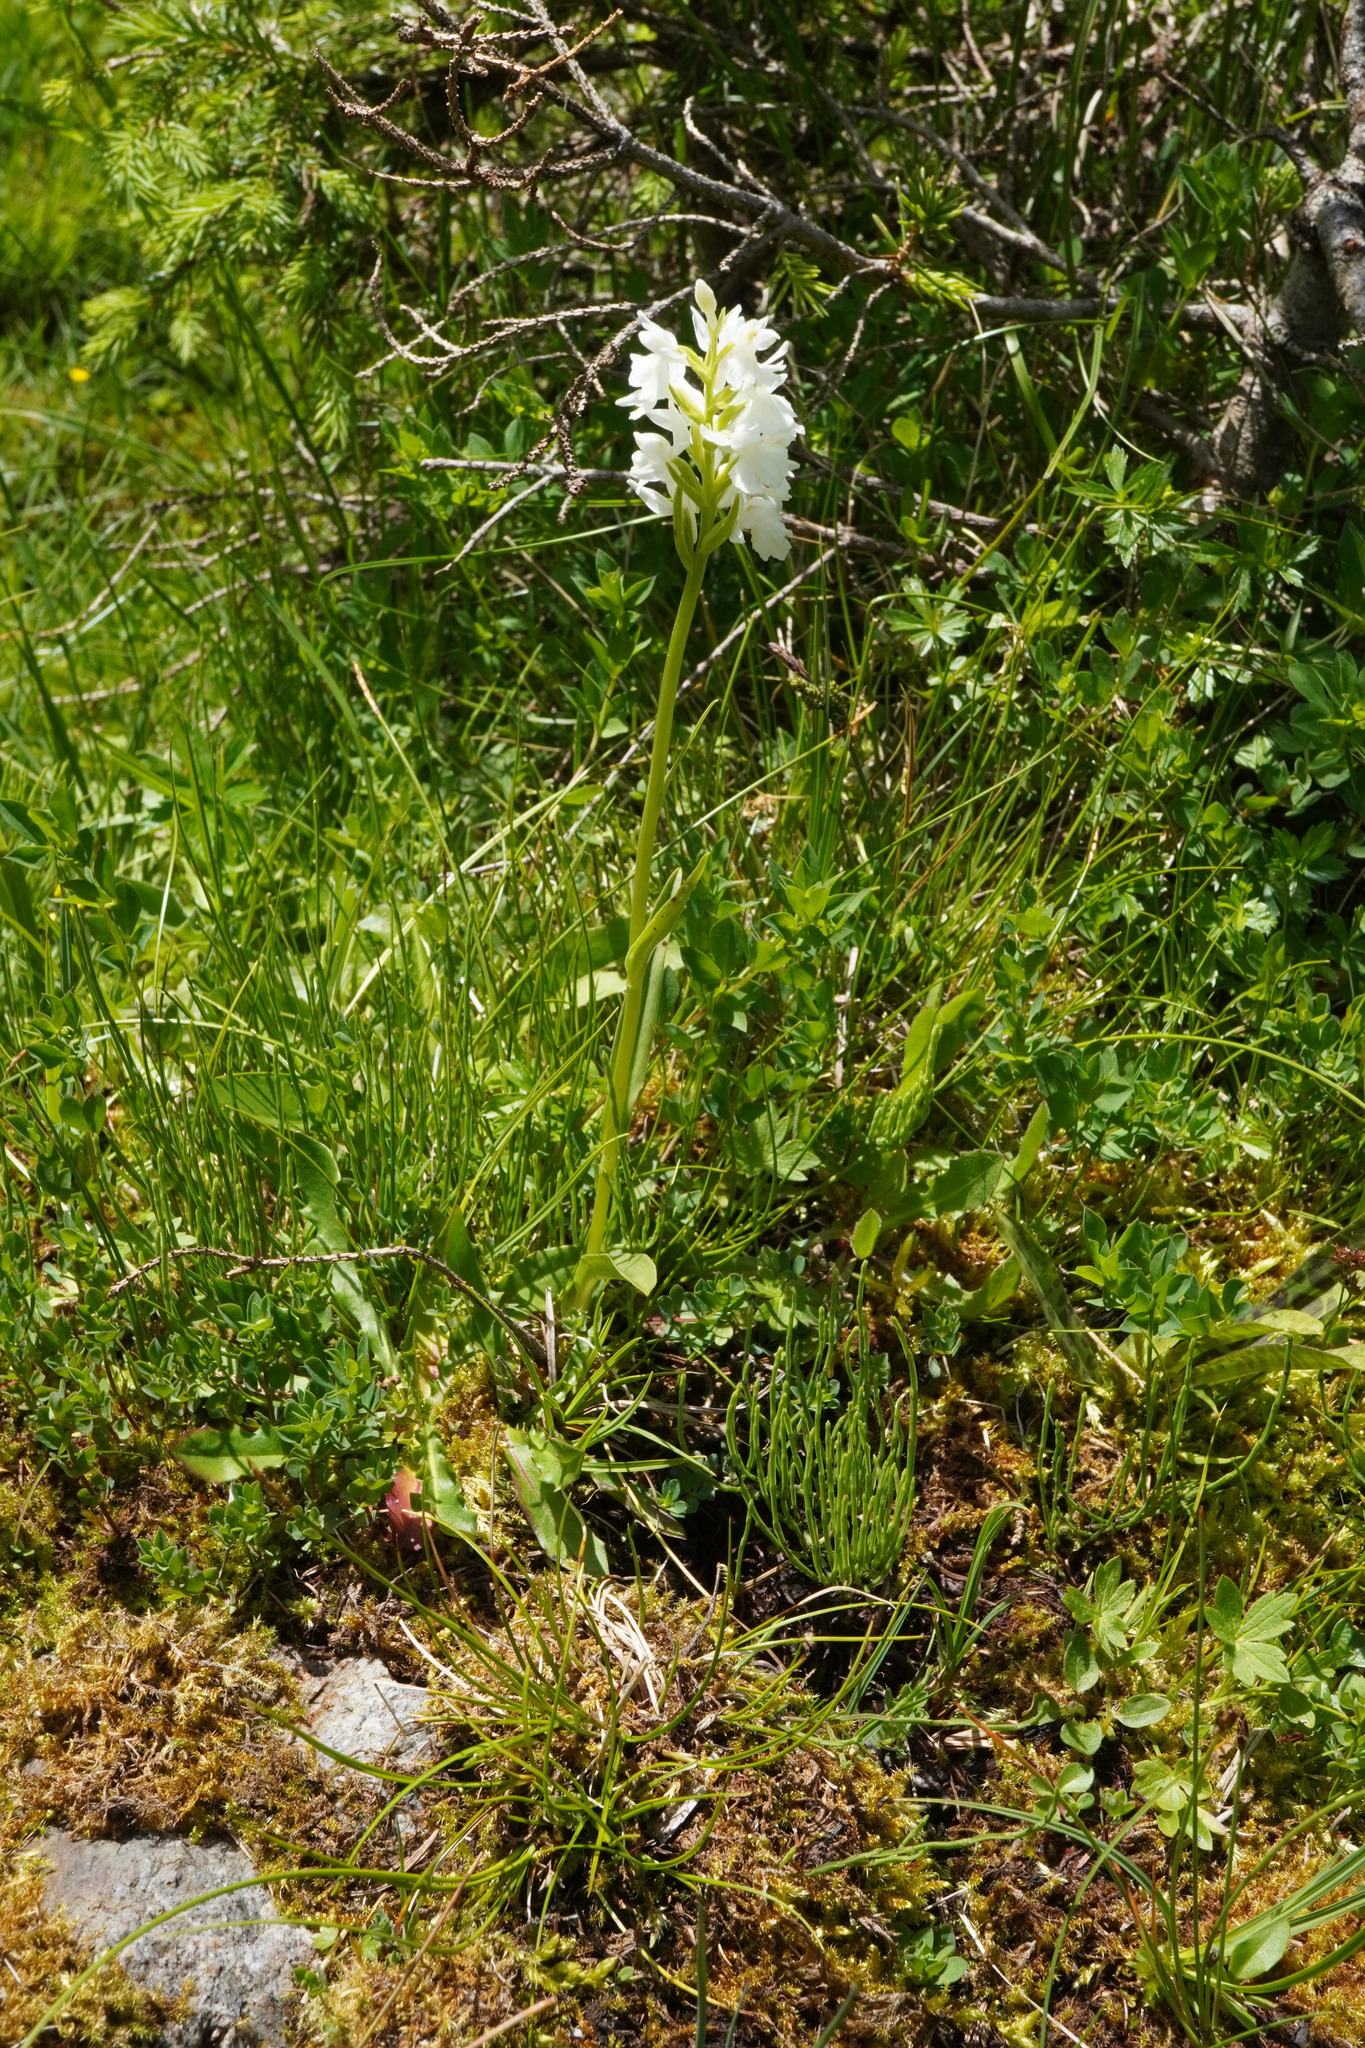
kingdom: Plantae
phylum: Tracheophyta
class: Liliopsida
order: Asparagales
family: Orchidaceae
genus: Dactylorhiza
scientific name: Dactylorhiza maculata
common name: Heath spotted-orchid
